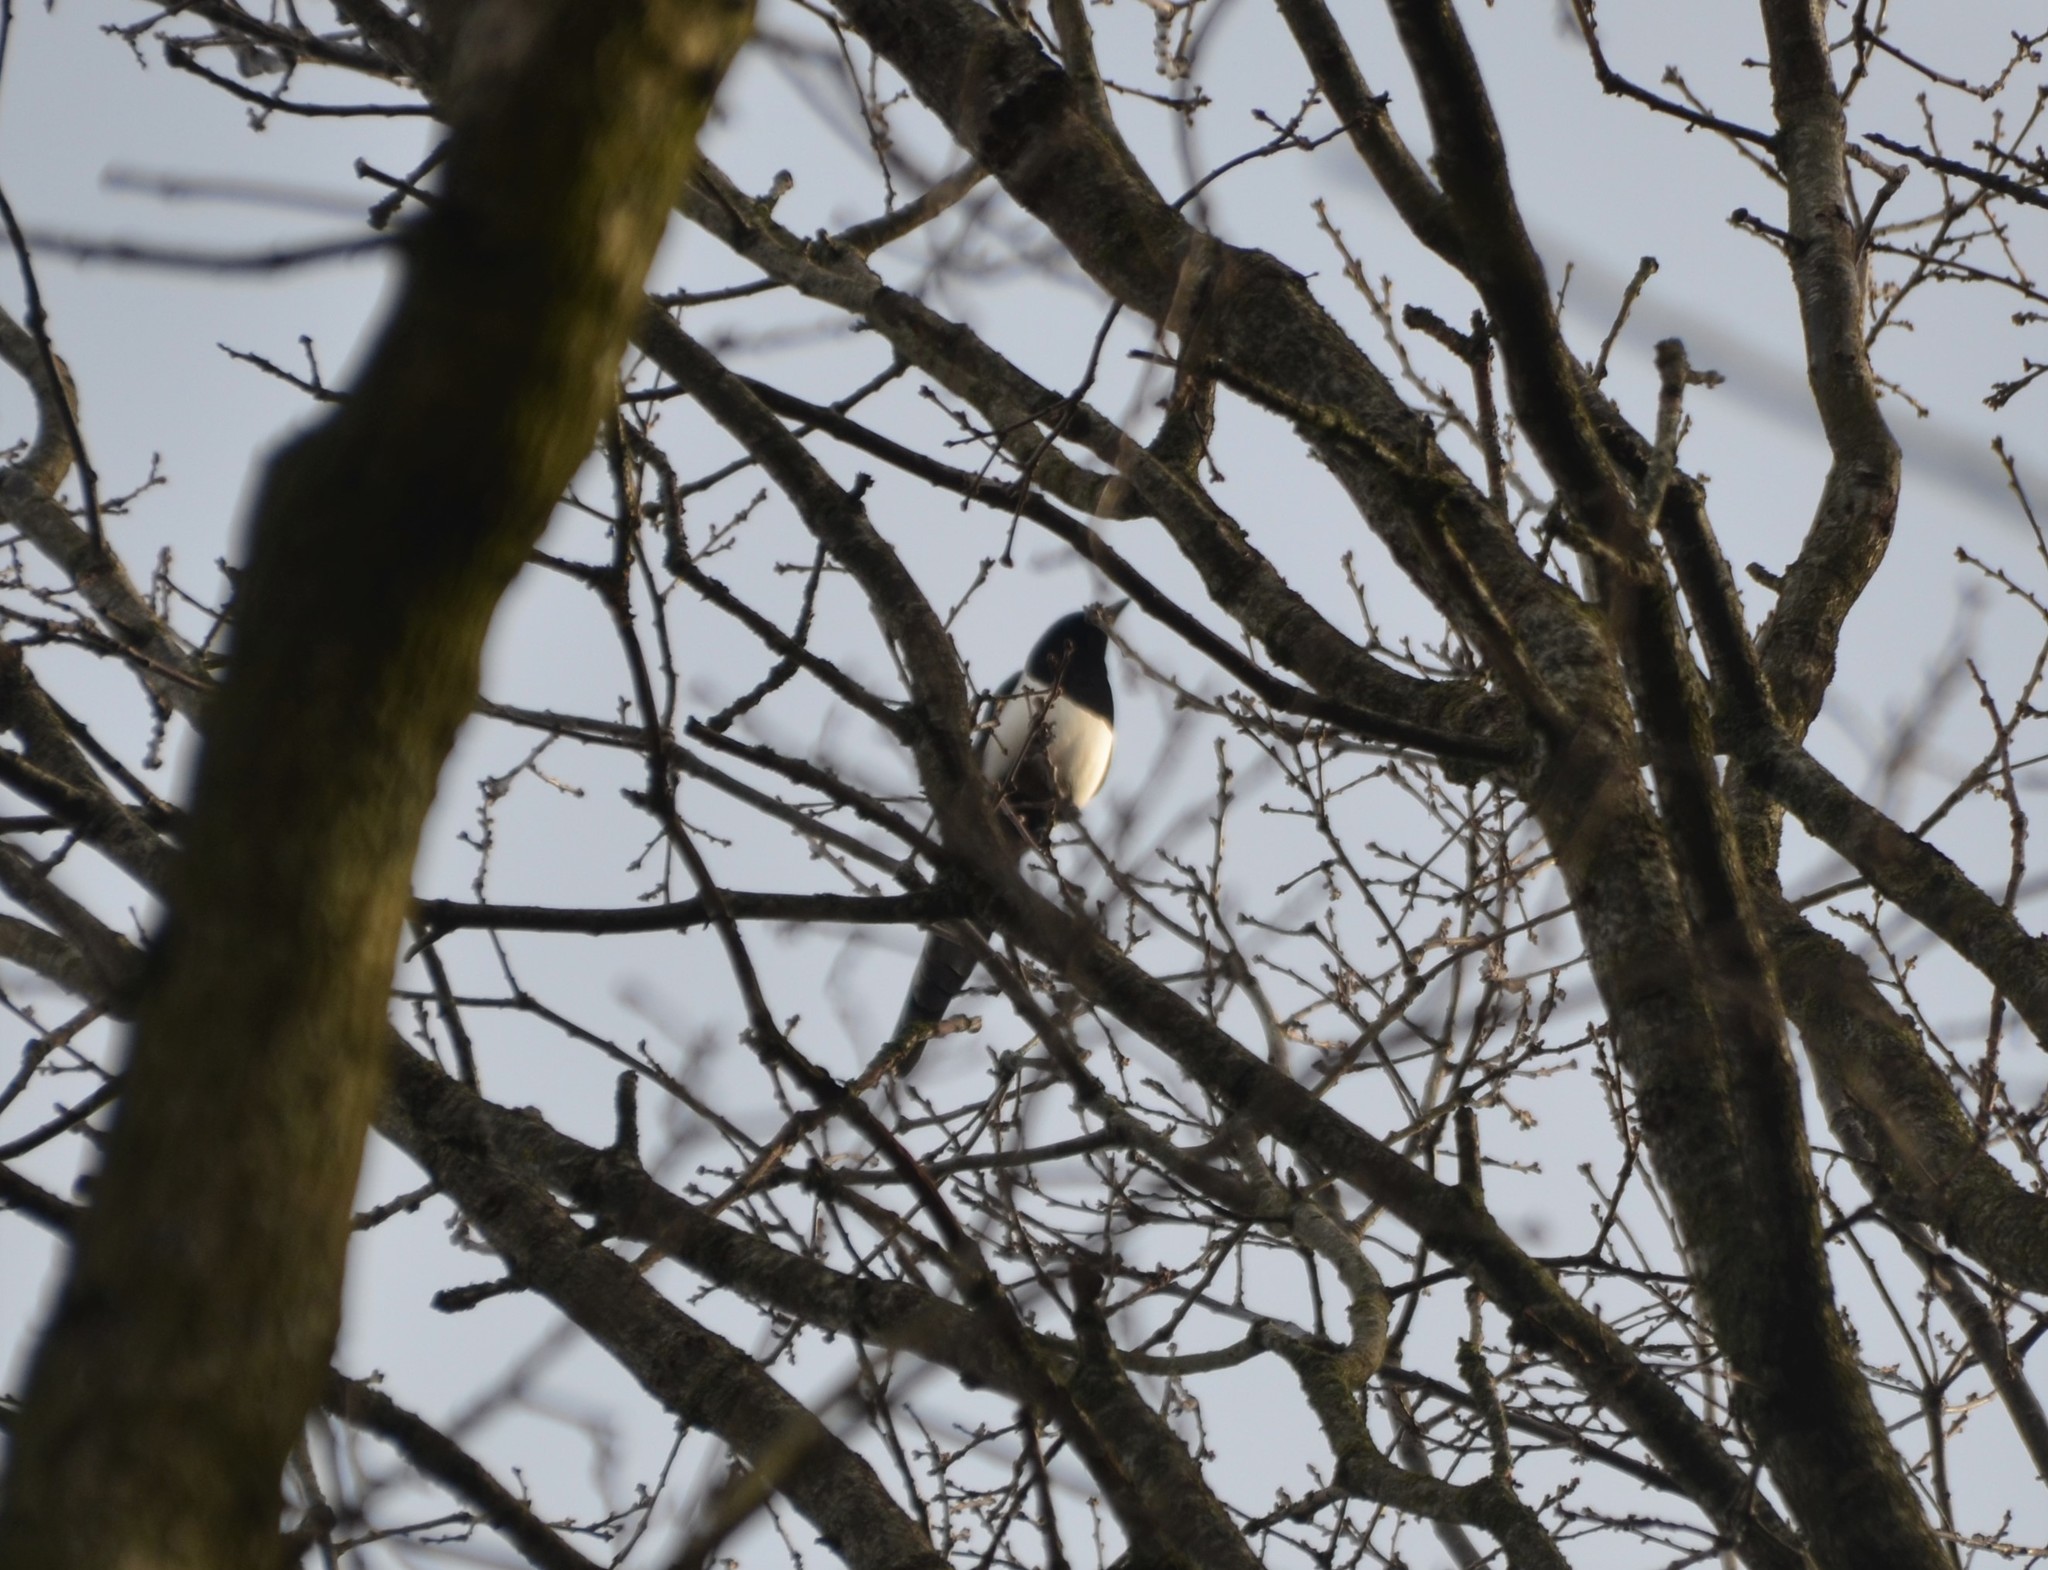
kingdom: Animalia
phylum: Chordata
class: Aves
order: Passeriformes
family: Corvidae
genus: Pica
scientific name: Pica pica
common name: Eurasian magpie
